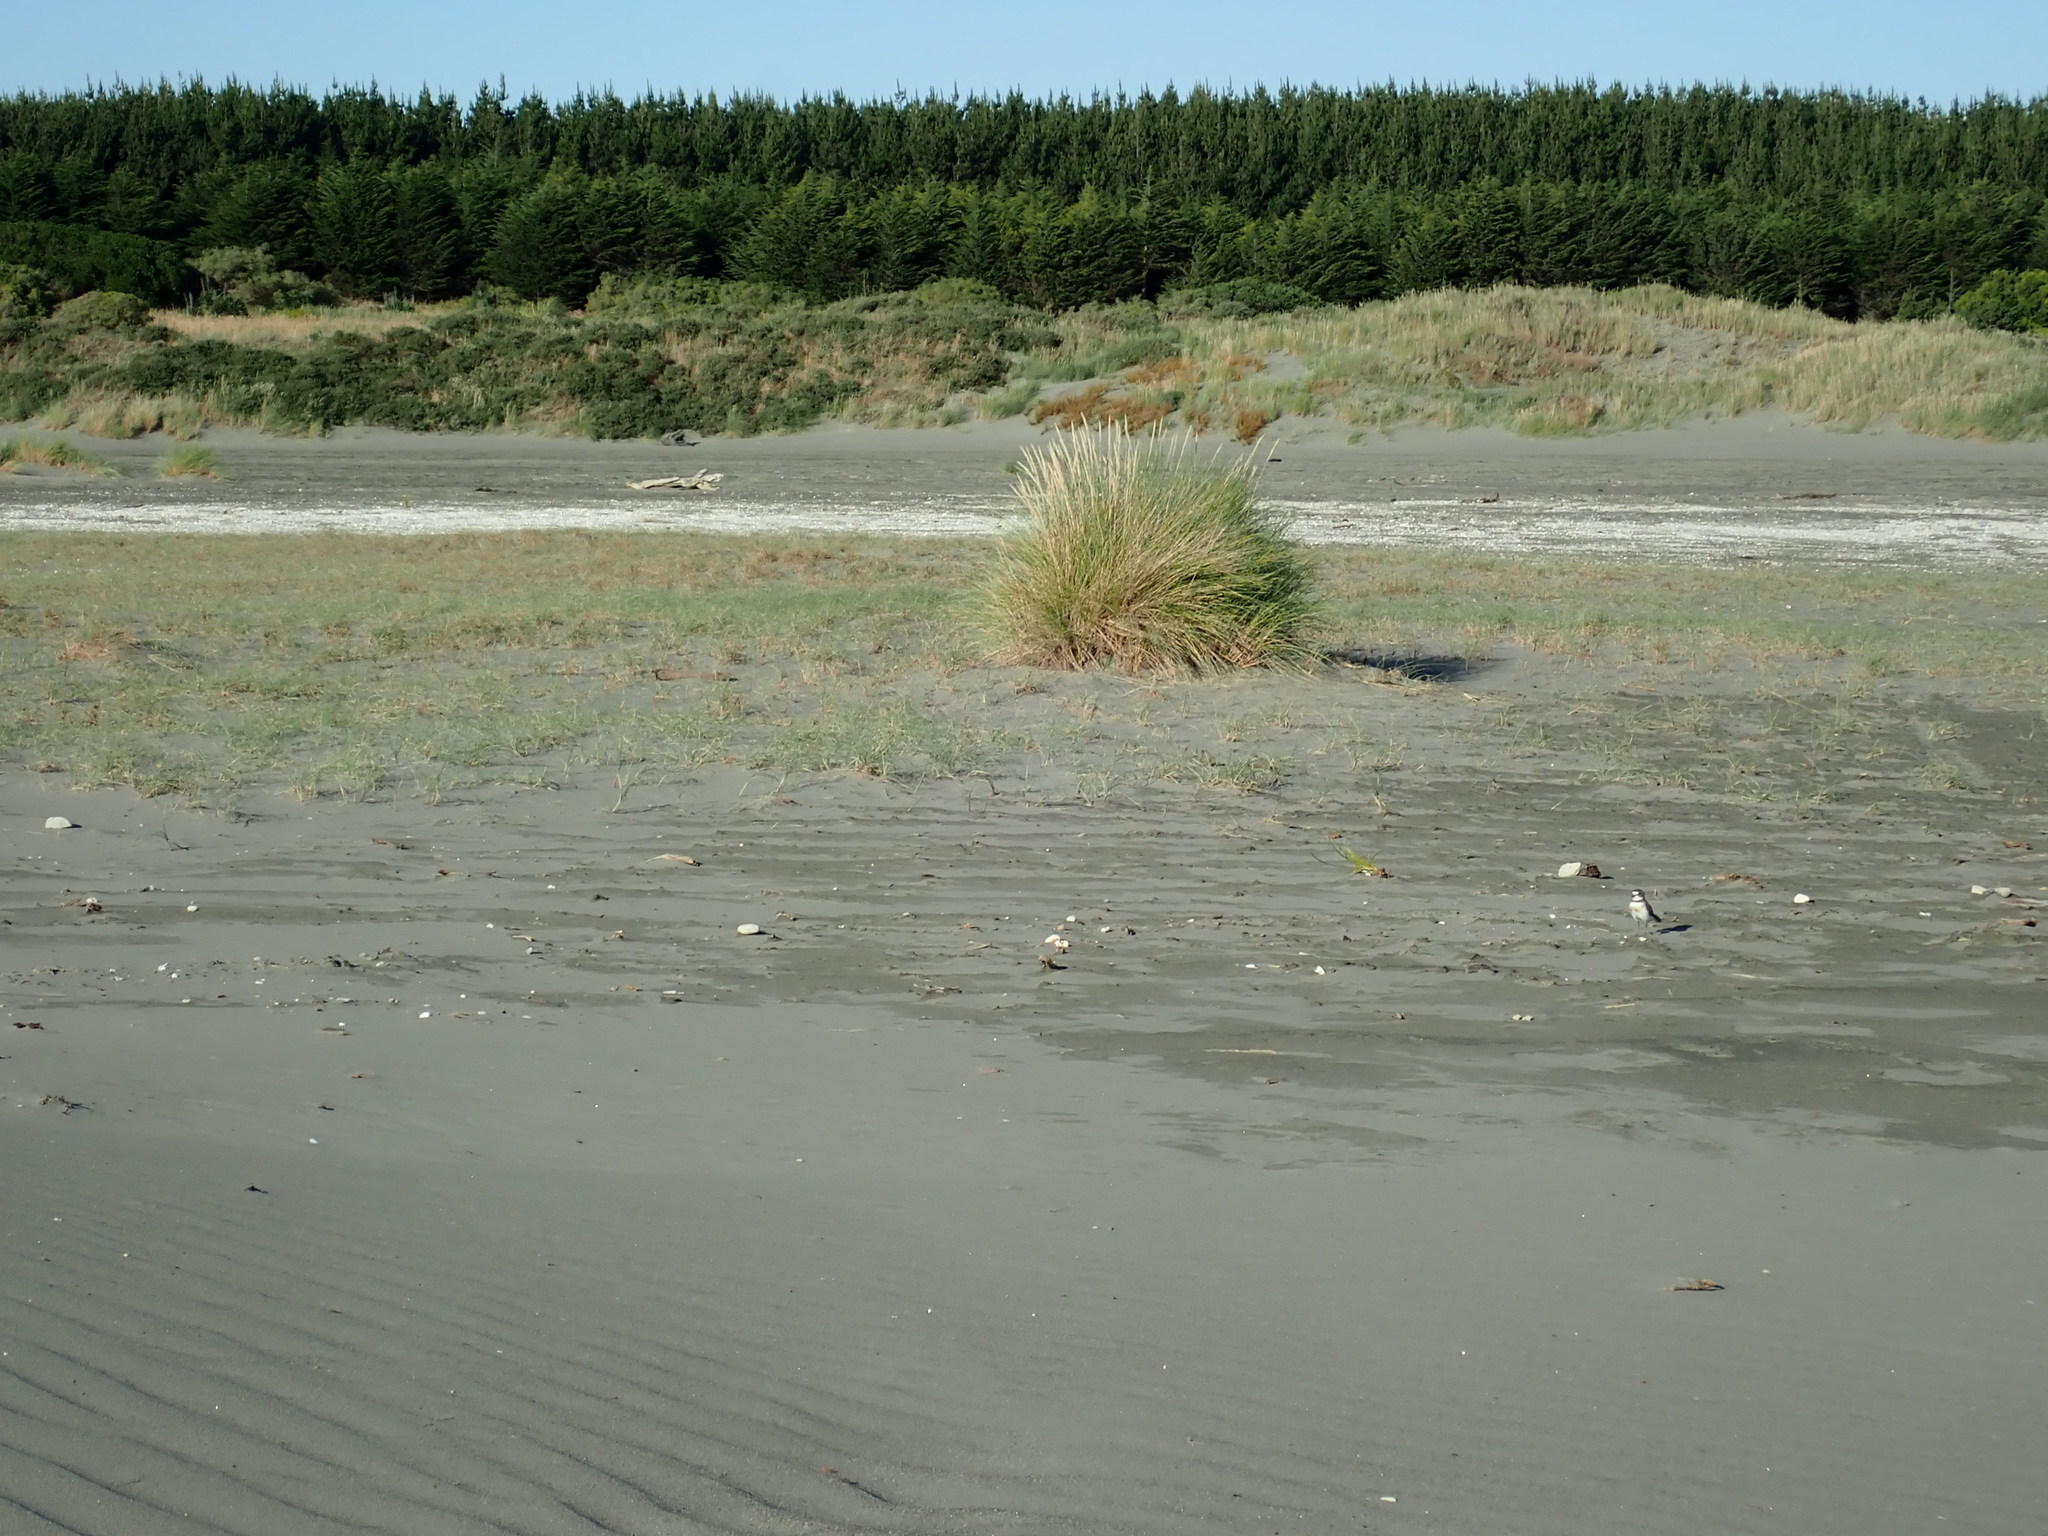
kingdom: Animalia
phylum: Chordata
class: Aves
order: Charadriiformes
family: Charadriidae
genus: Anarhynchus
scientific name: Anarhynchus
